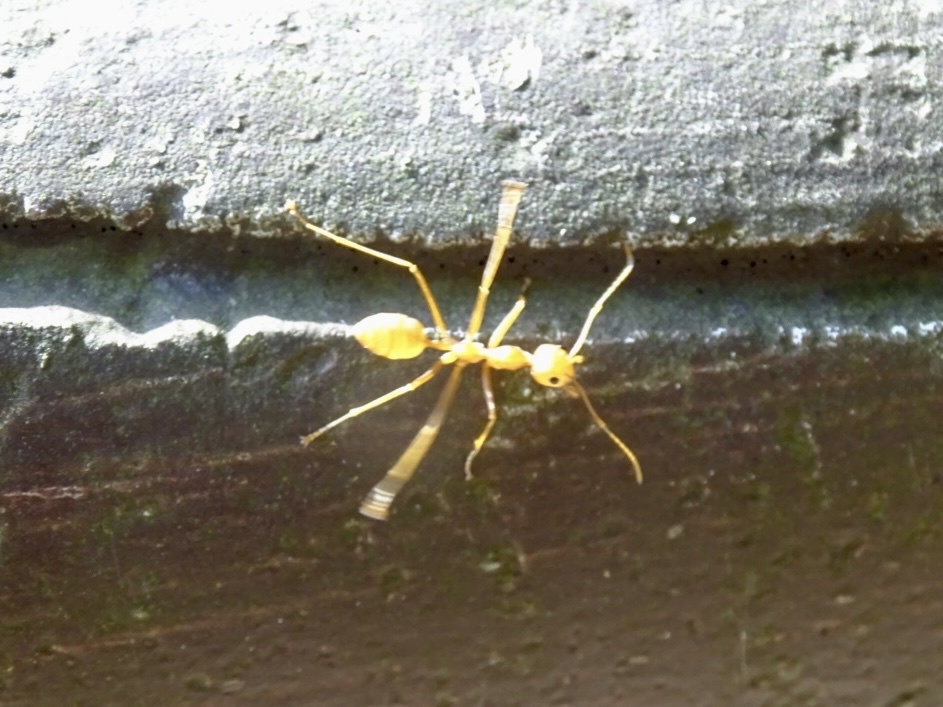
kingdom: Animalia
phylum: Arthropoda
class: Insecta
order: Hymenoptera
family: Formicidae
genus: Oecophylla
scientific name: Oecophylla smaragdina
